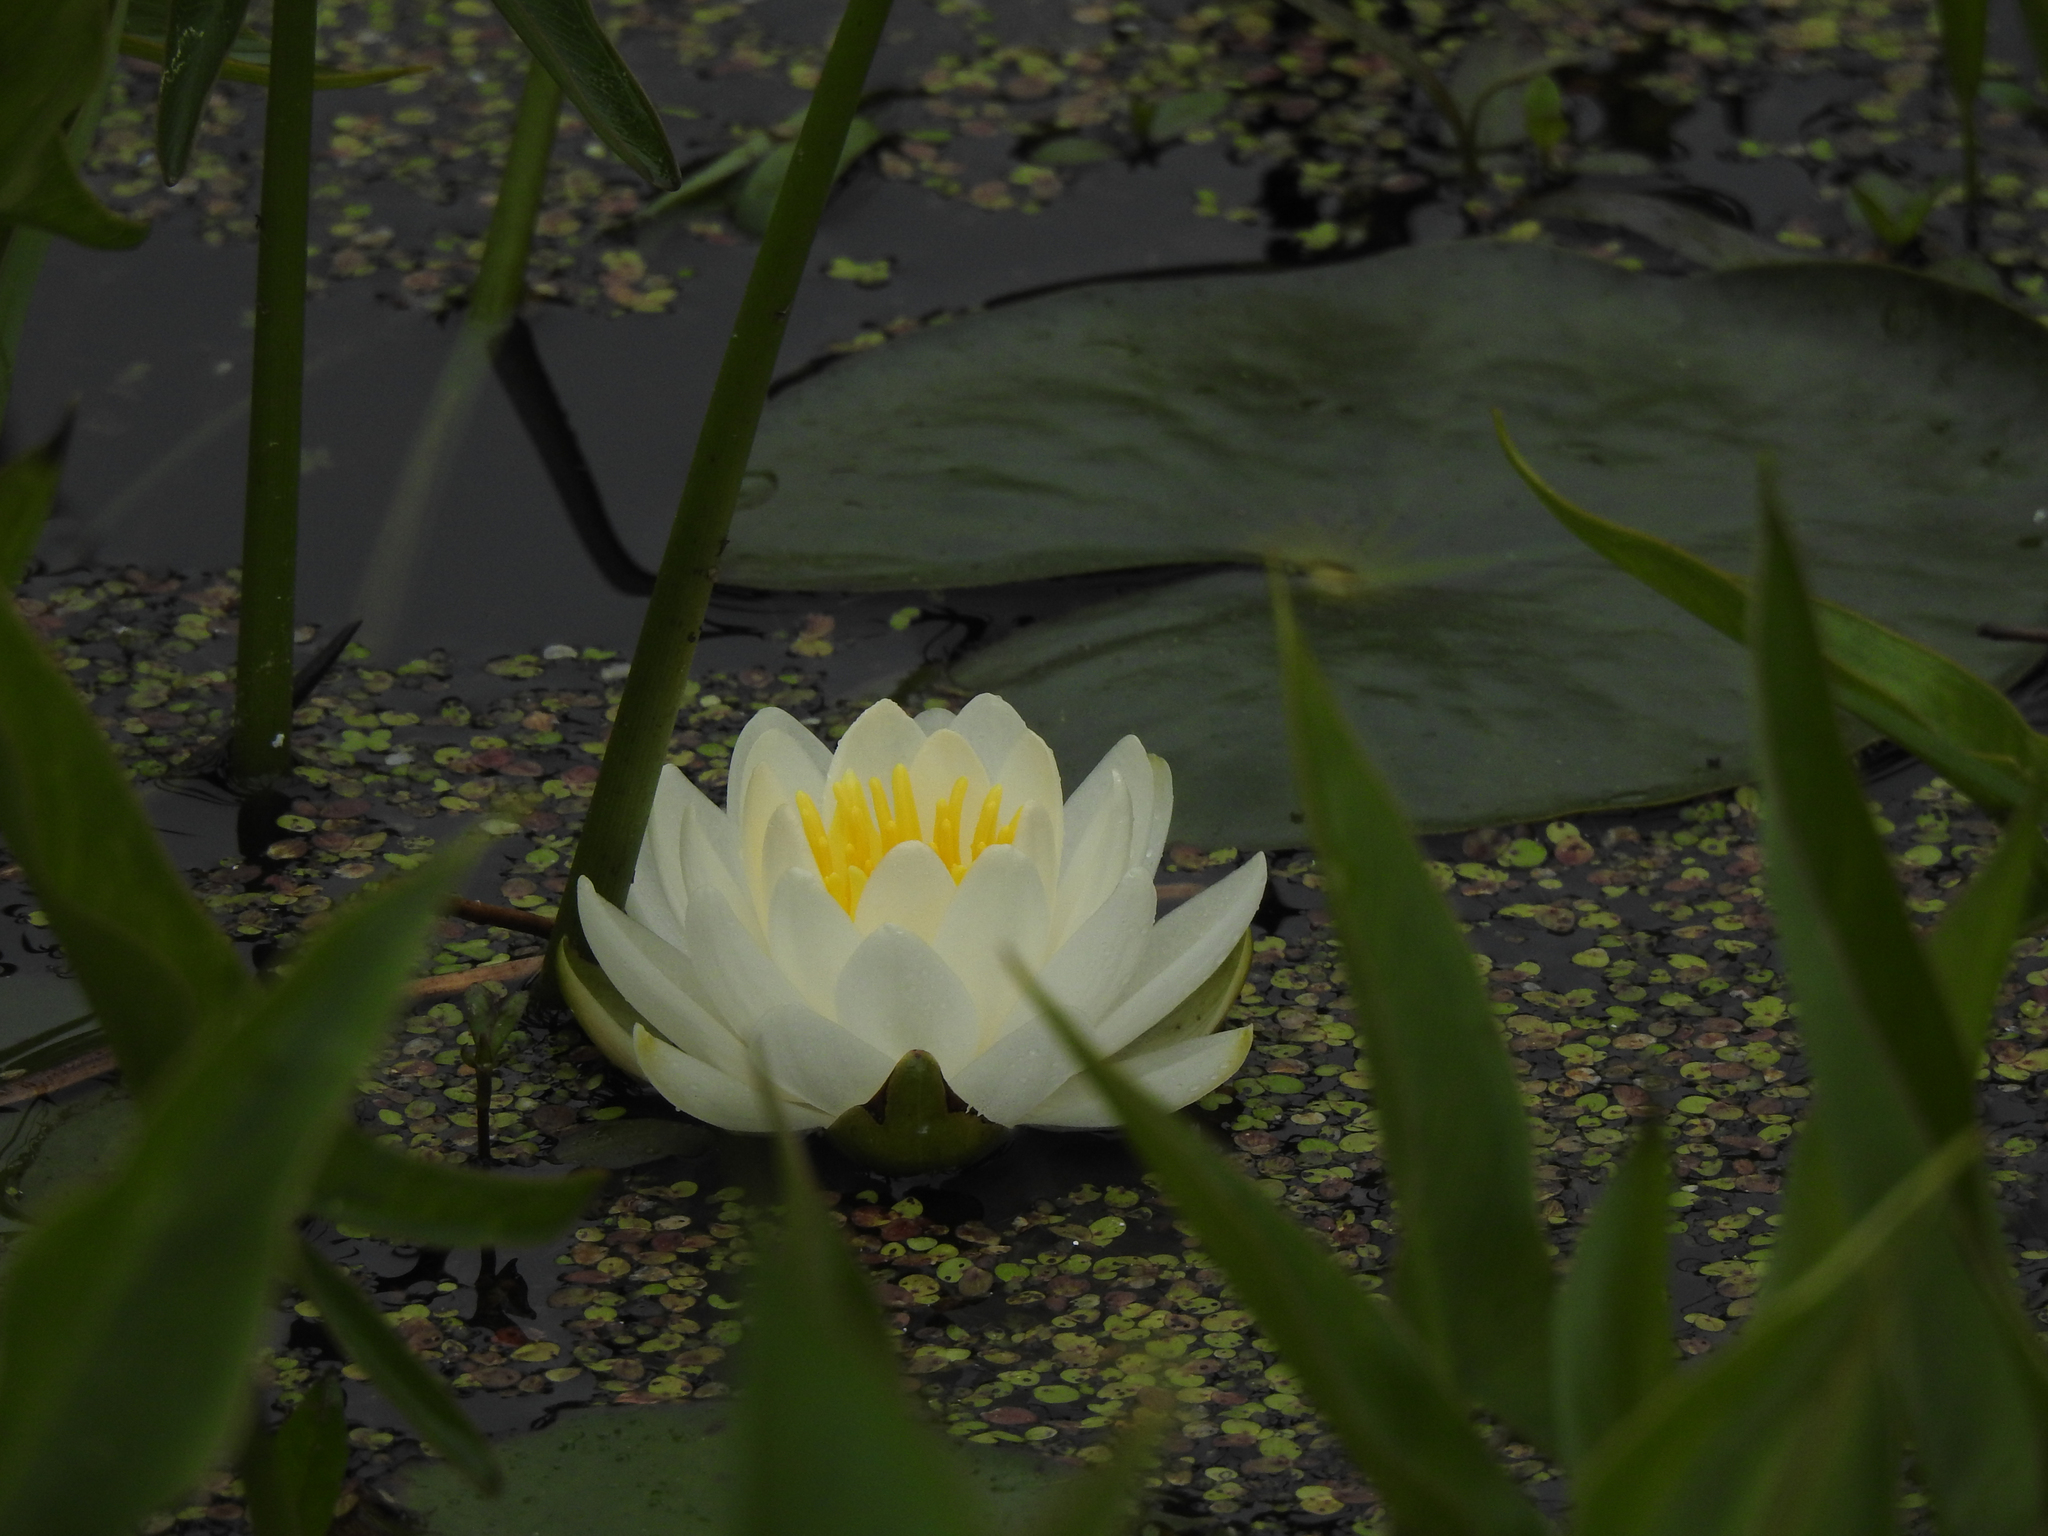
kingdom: Plantae
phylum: Tracheophyta
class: Magnoliopsida
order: Nymphaeales
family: Nymphaeaceae
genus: Nymphaea
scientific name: Nymphaea odorata
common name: Fragrant water-lily
